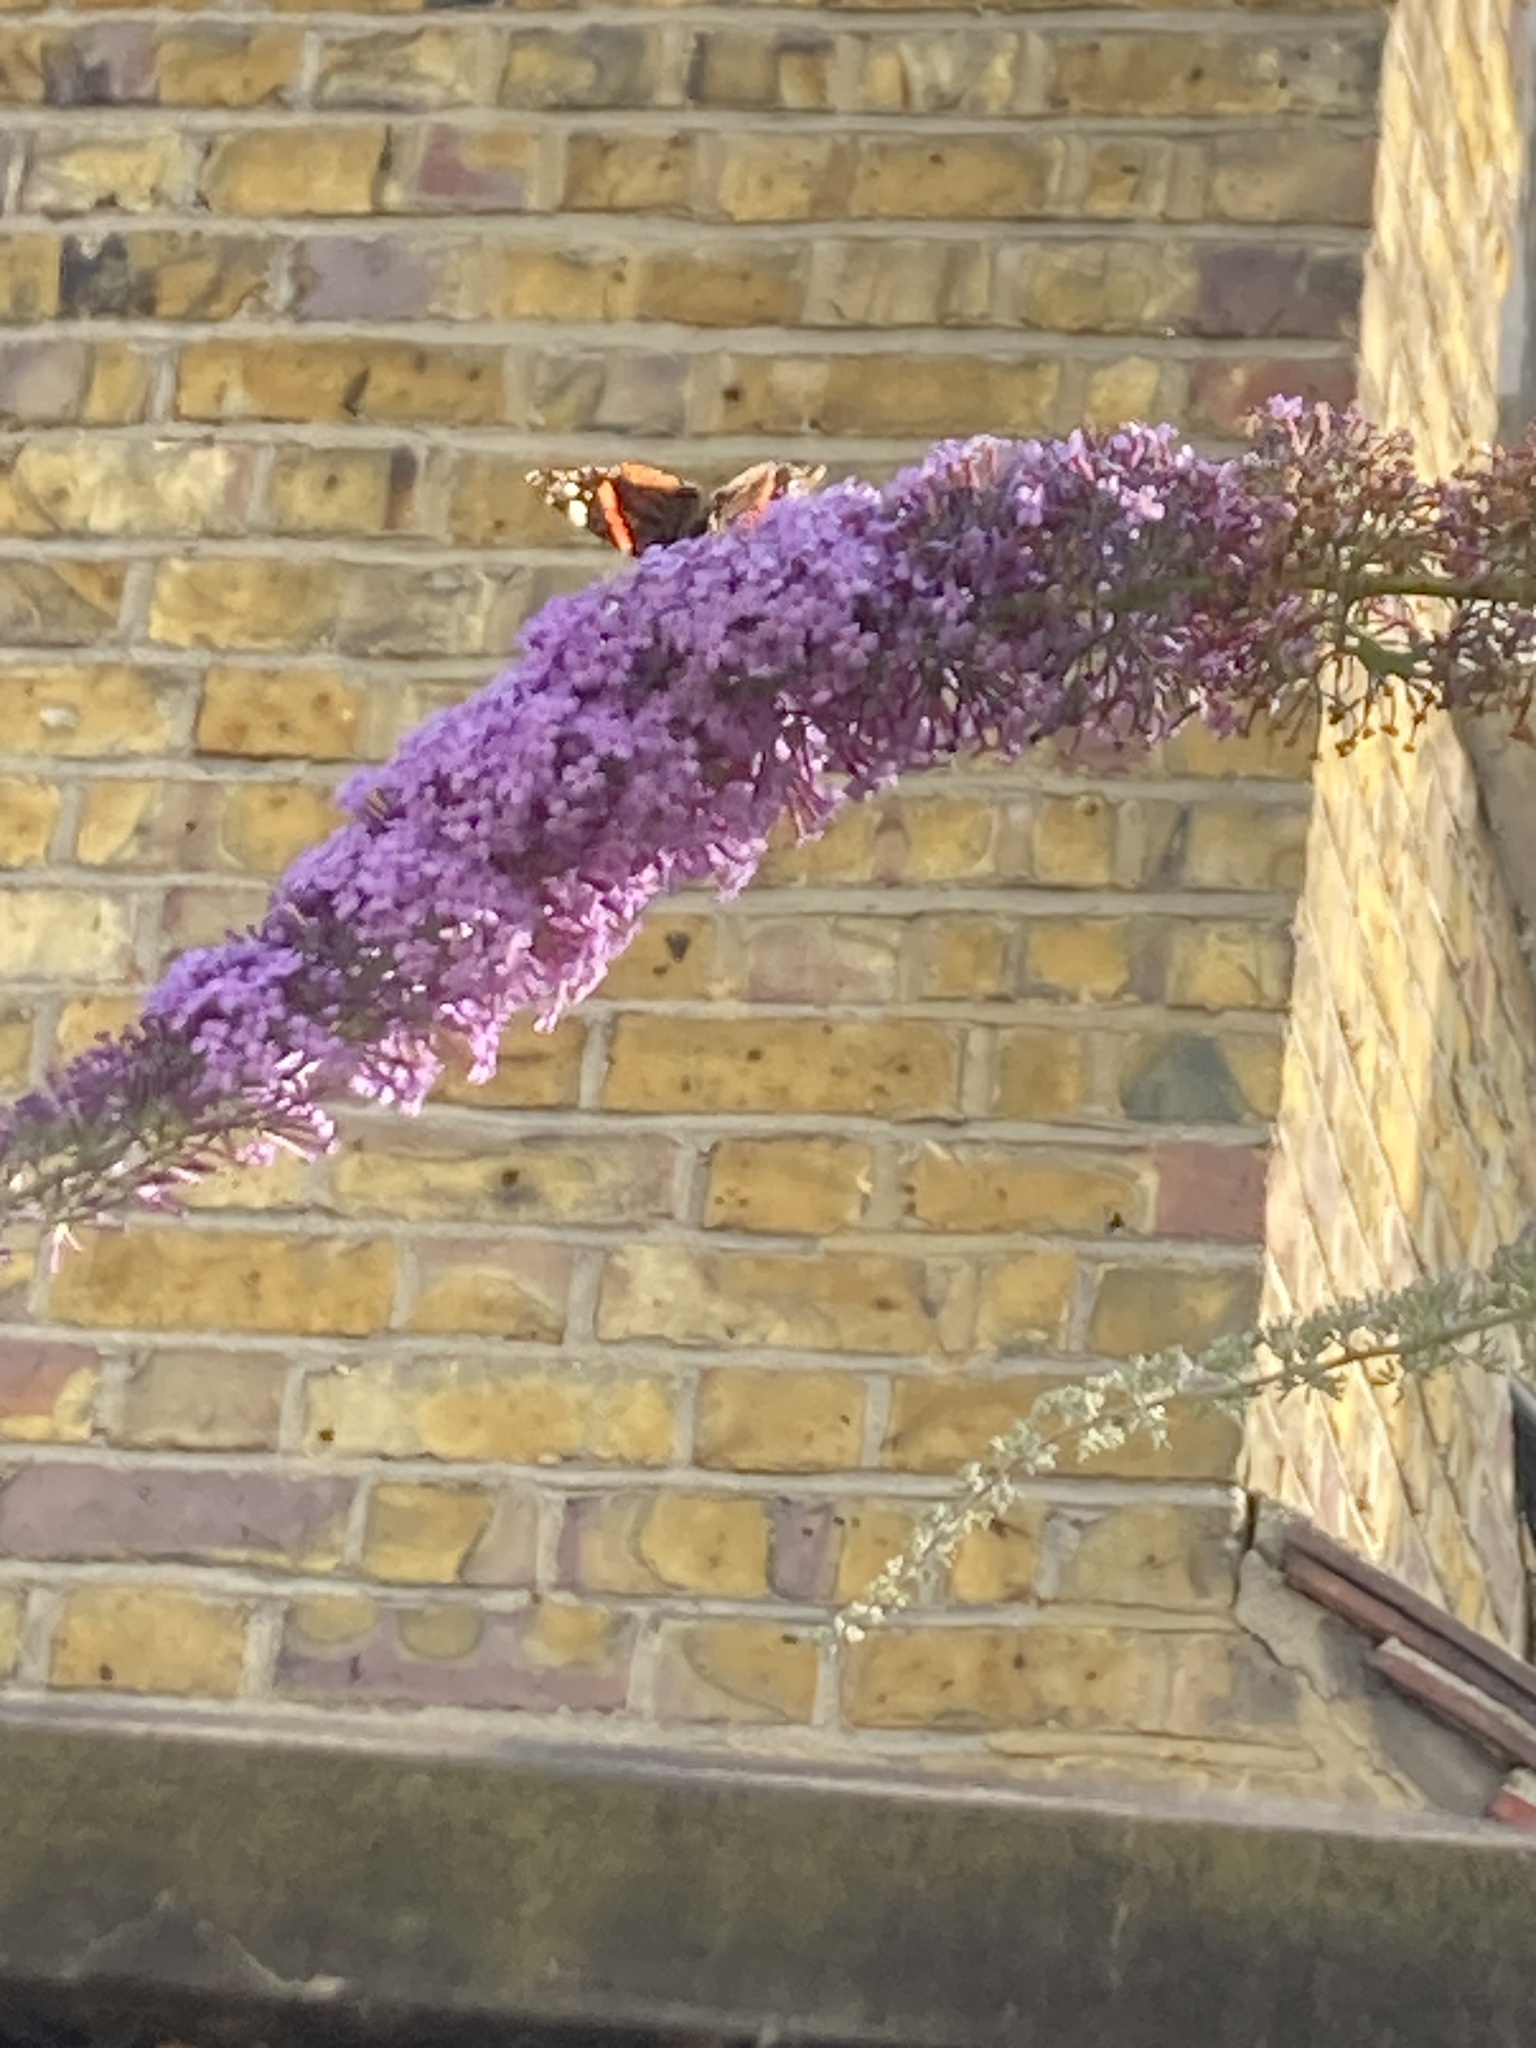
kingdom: Animalia
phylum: Arthropoda
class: Insecta
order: Lepidoptera
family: Nymphalidae
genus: Vanessa
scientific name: Vanessa atalanta
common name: Red admiral
